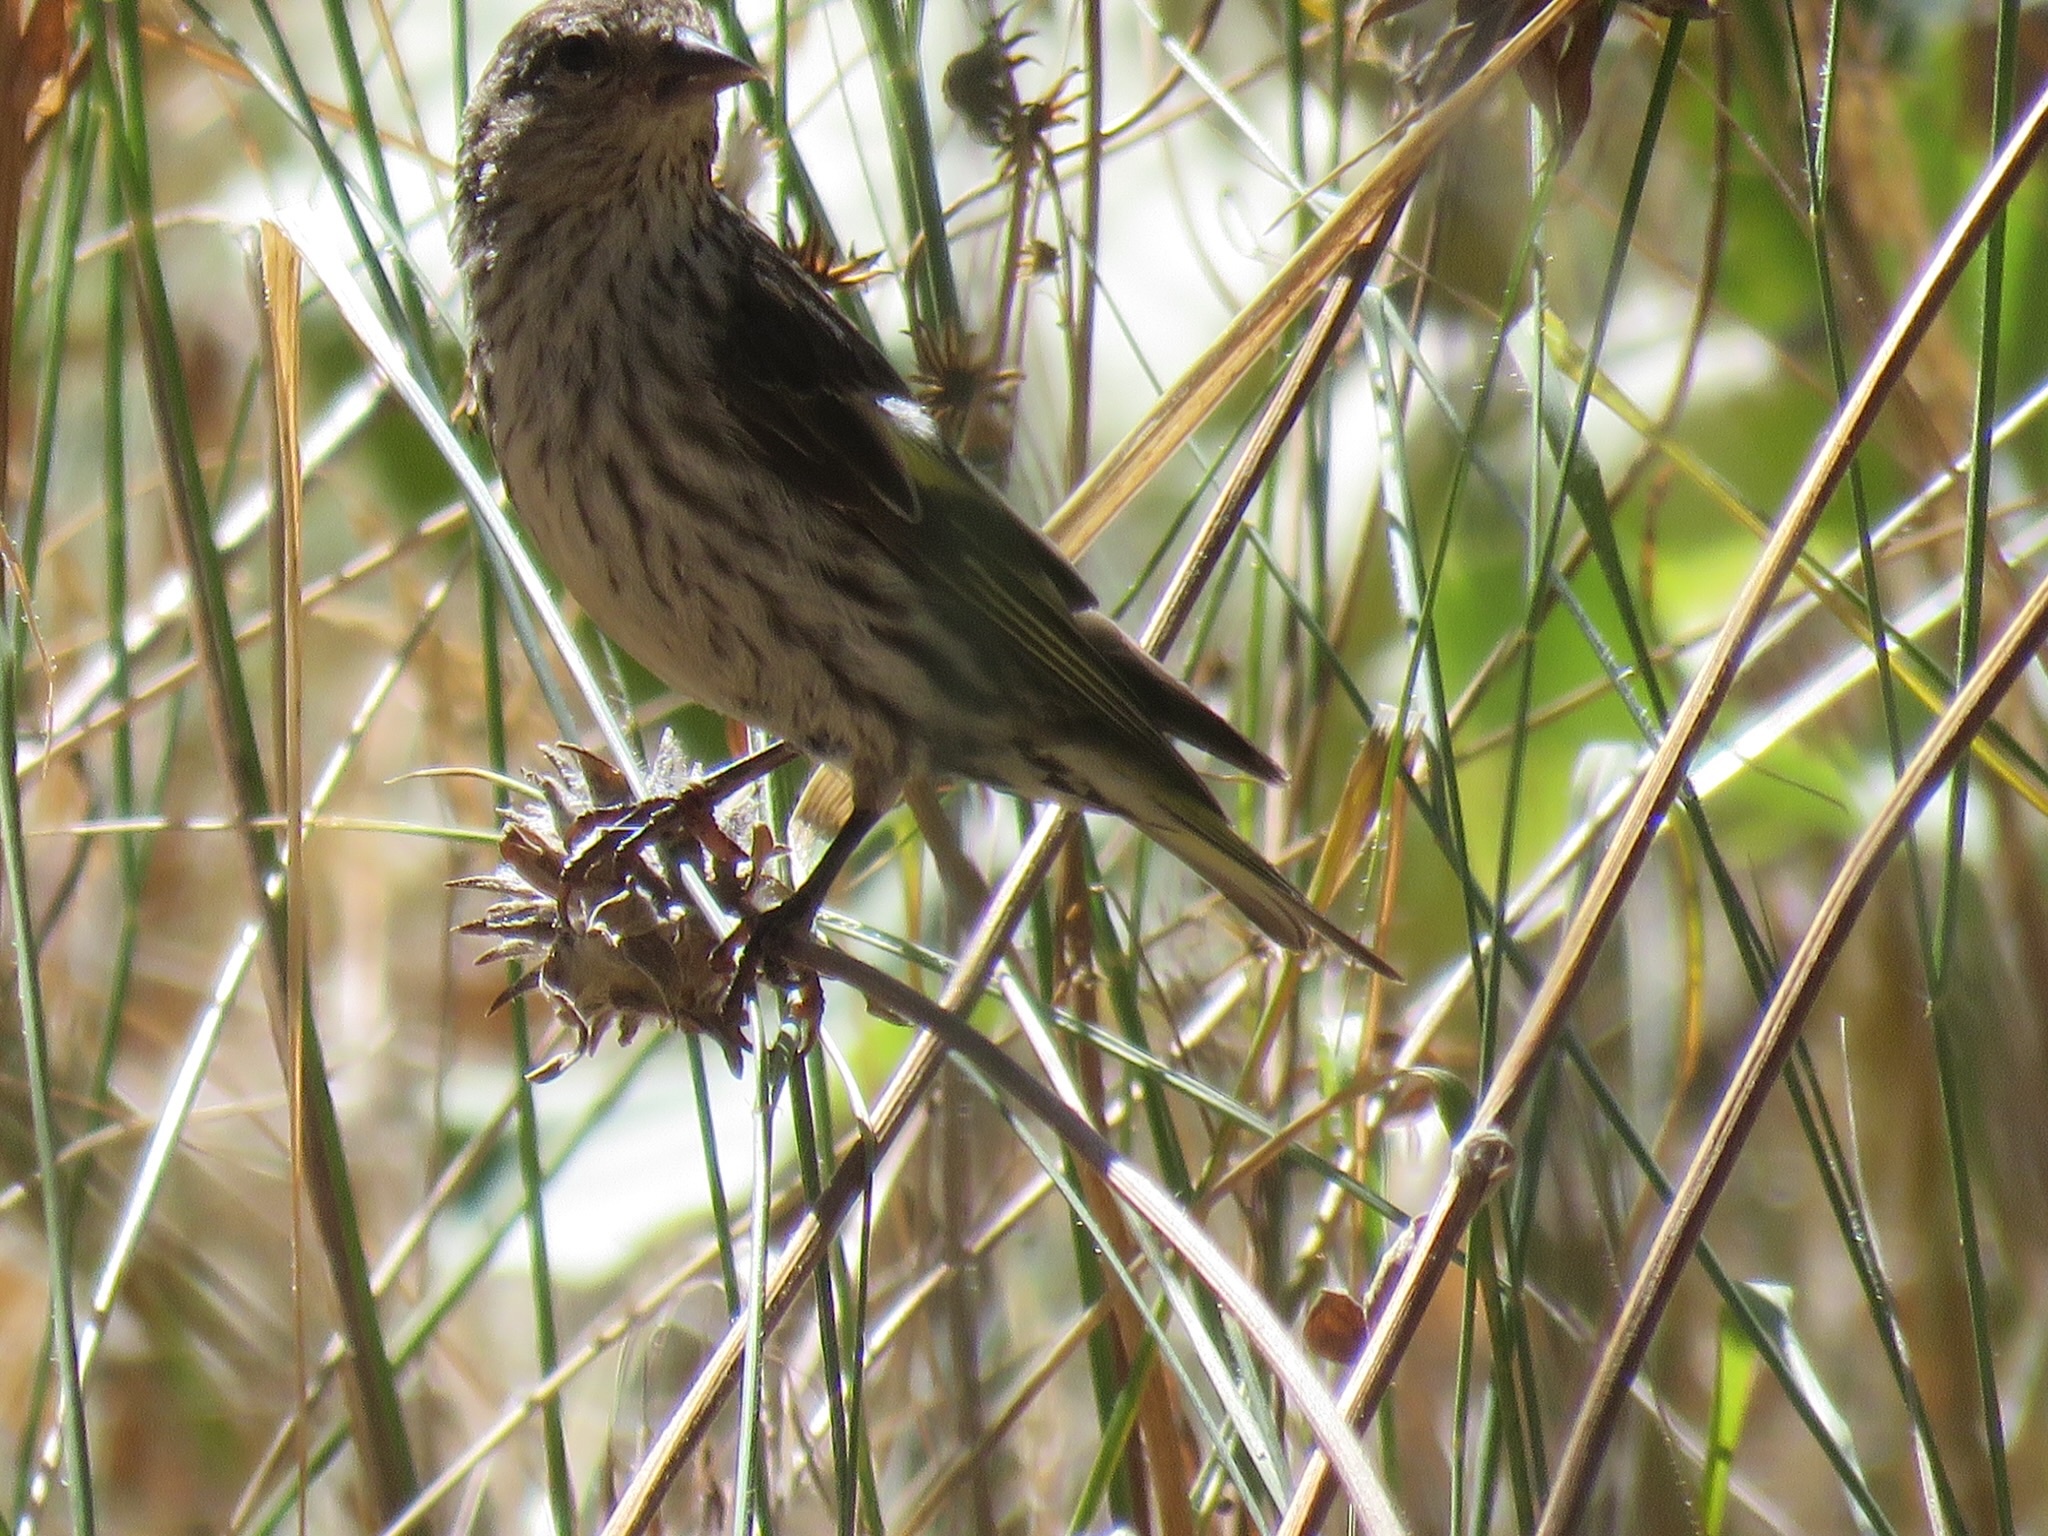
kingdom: Animalia
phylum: Chordata
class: Aves
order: Passeriformes
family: Fringillidae
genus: Spinus
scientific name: Spinus pinus
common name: Pine siskin
